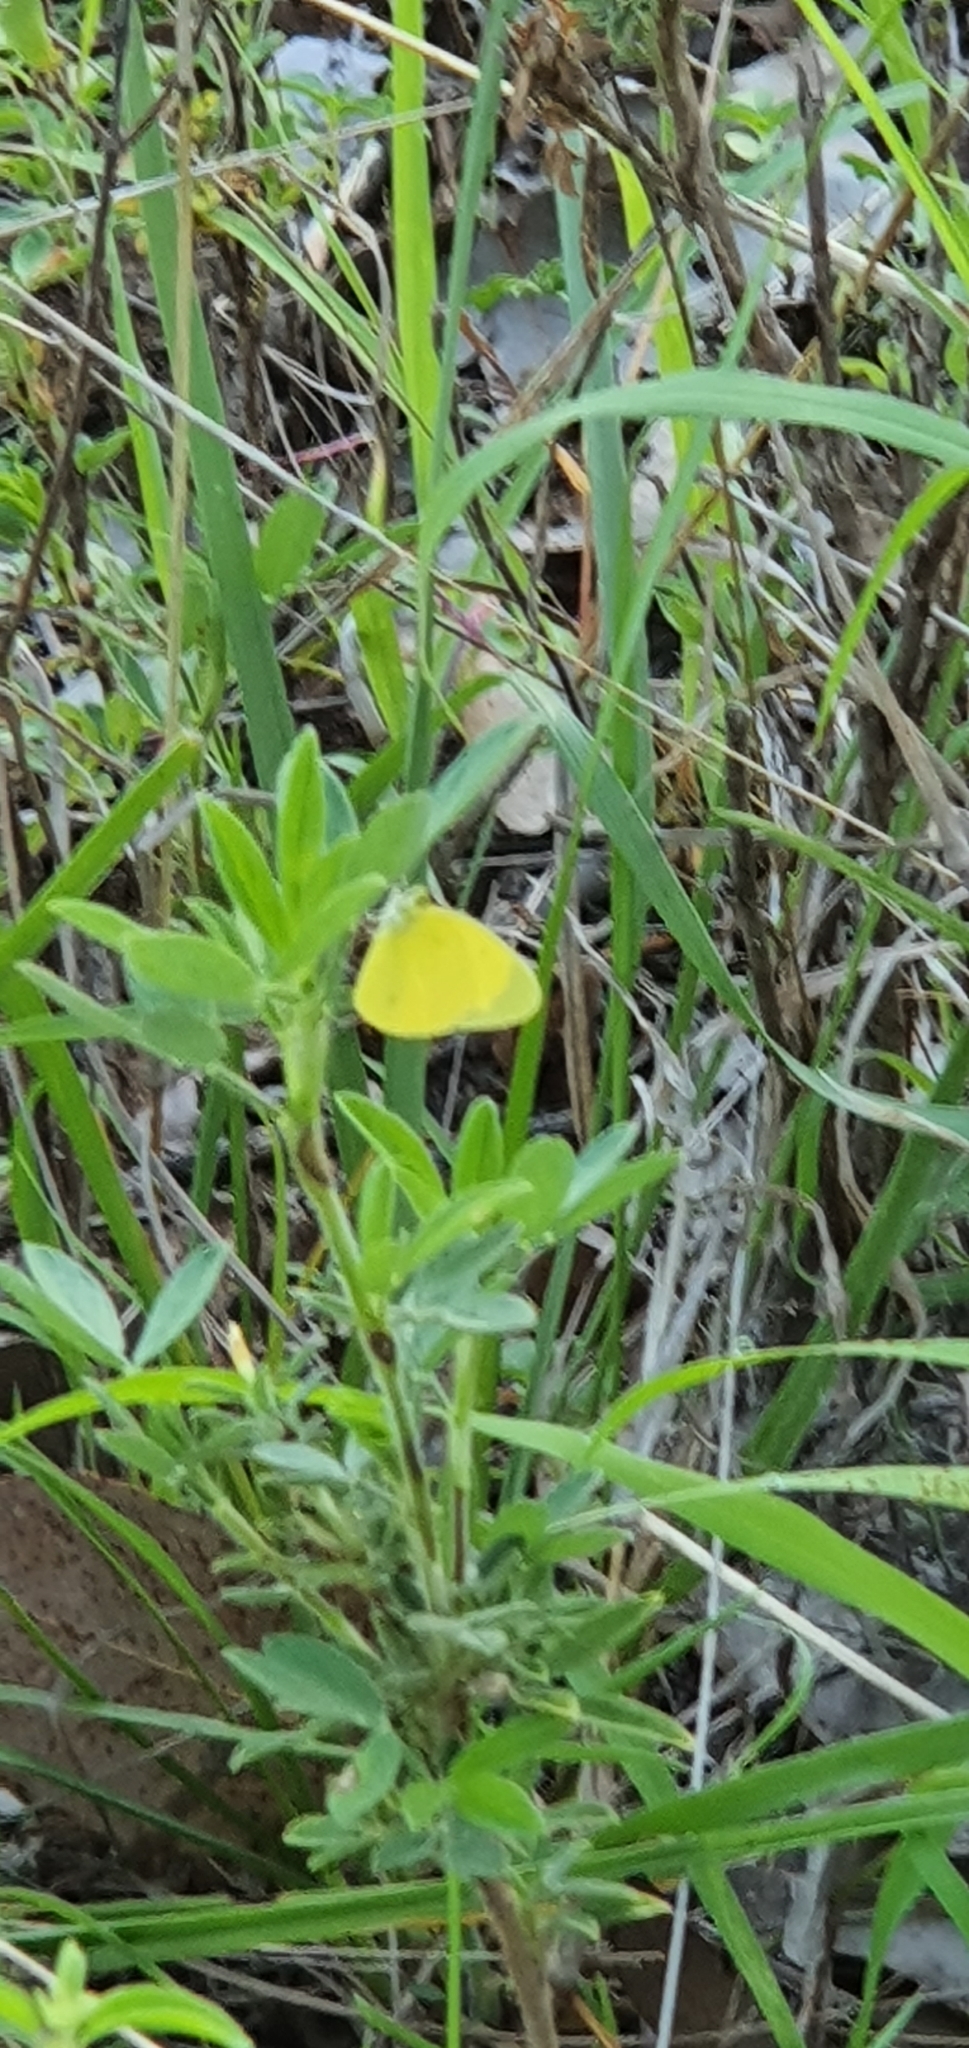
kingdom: Animalia
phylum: Arthropoda
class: Insecta
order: Lepidoptera
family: Pieridae
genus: Eurema
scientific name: Eurema
